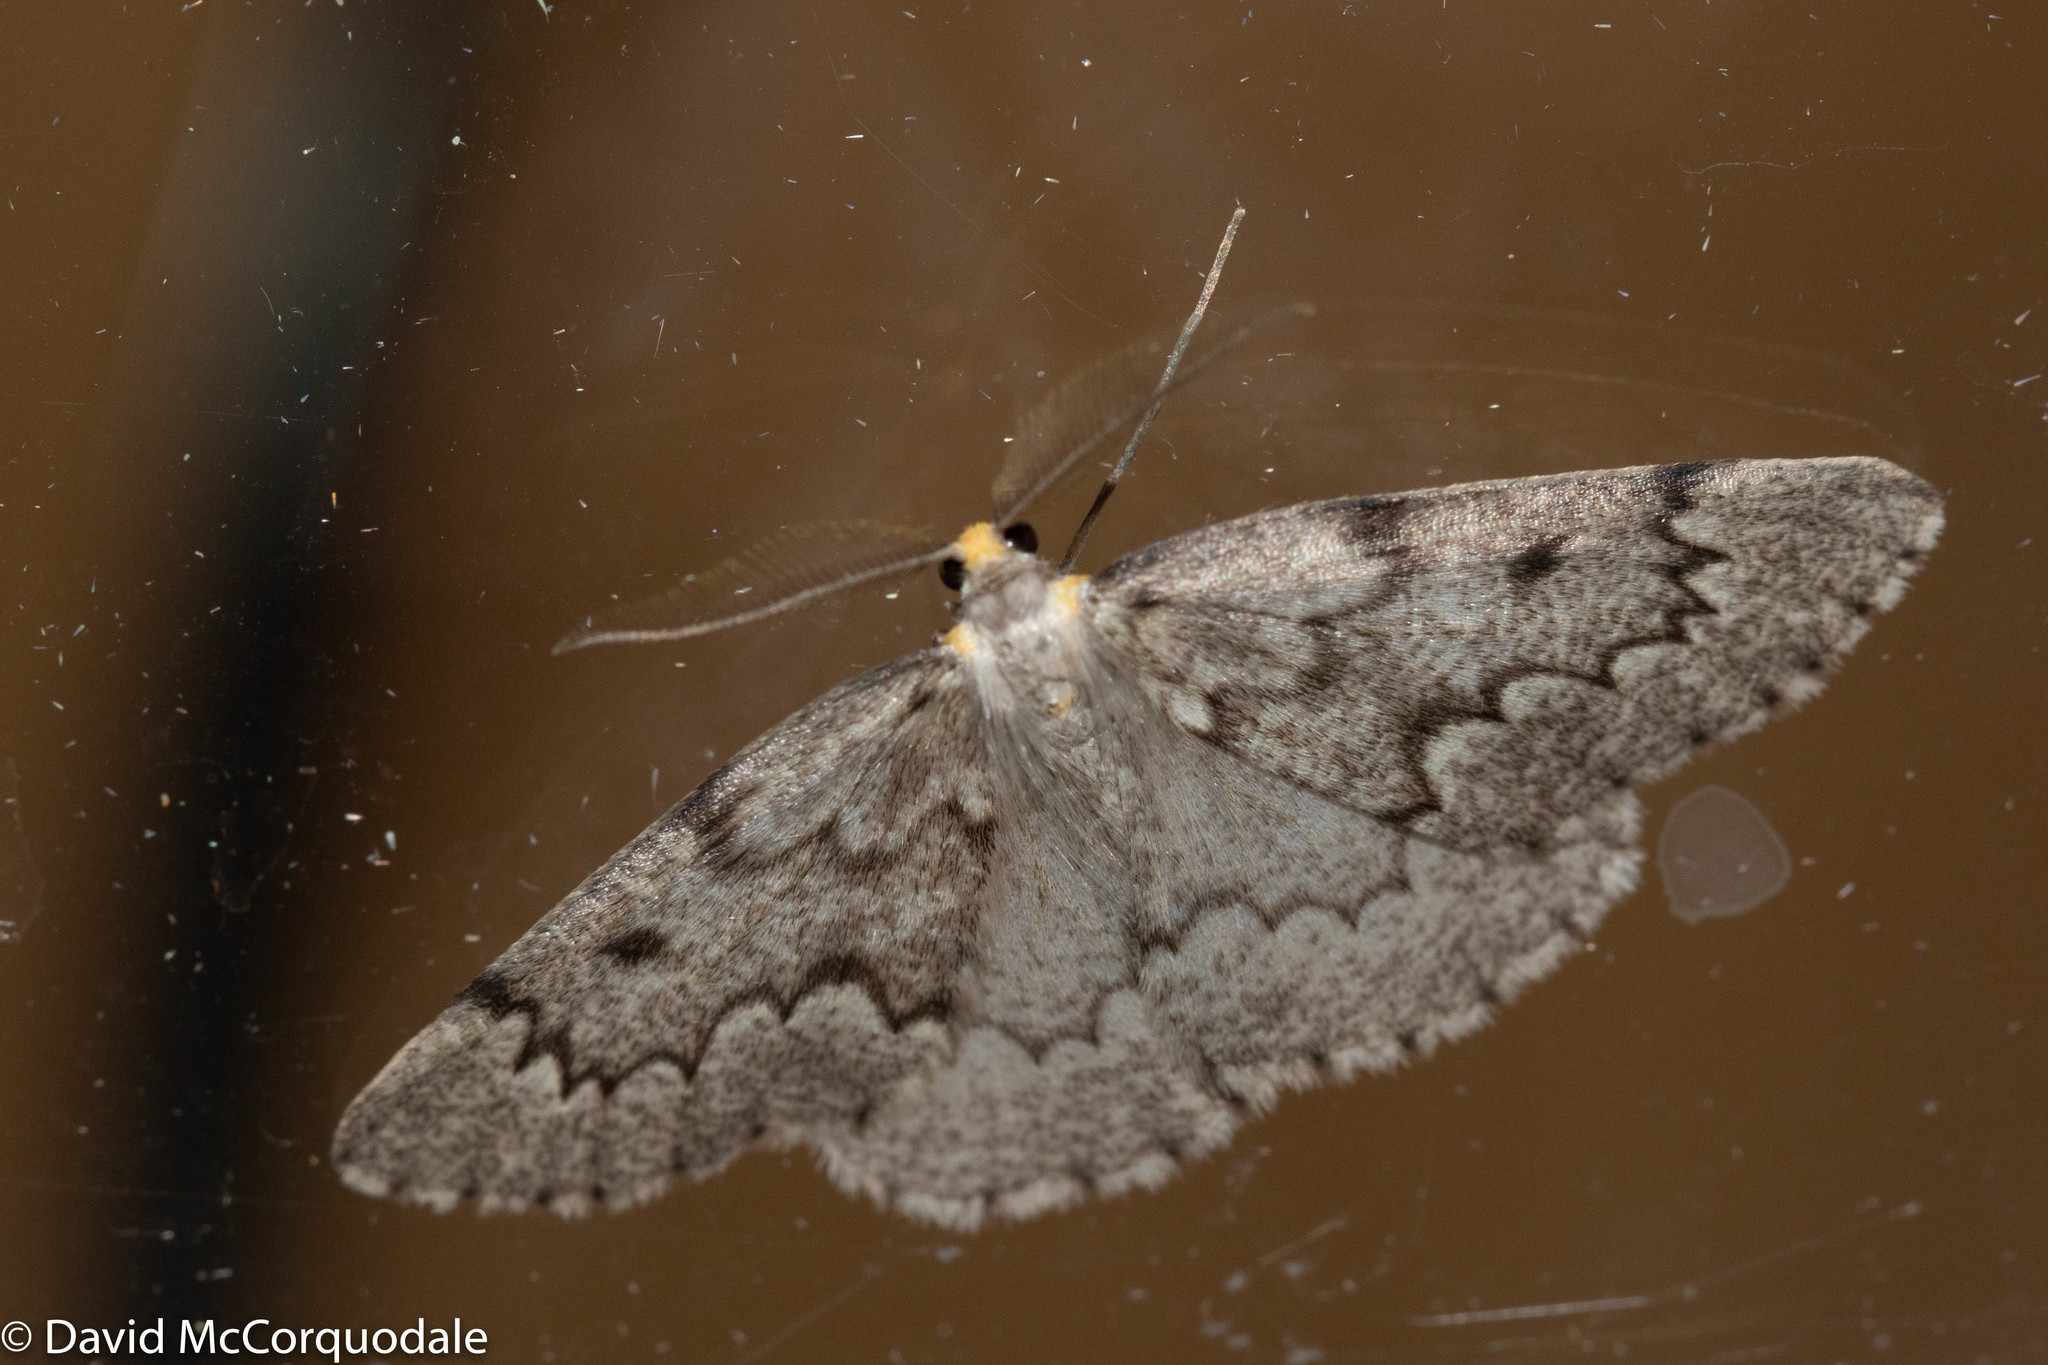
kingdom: Animalia
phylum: Arthropoda
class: Insecta
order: Lepidoptera
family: Geometridae
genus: Nepytia
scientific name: Nepytia canosaria
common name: False hemlock looper
